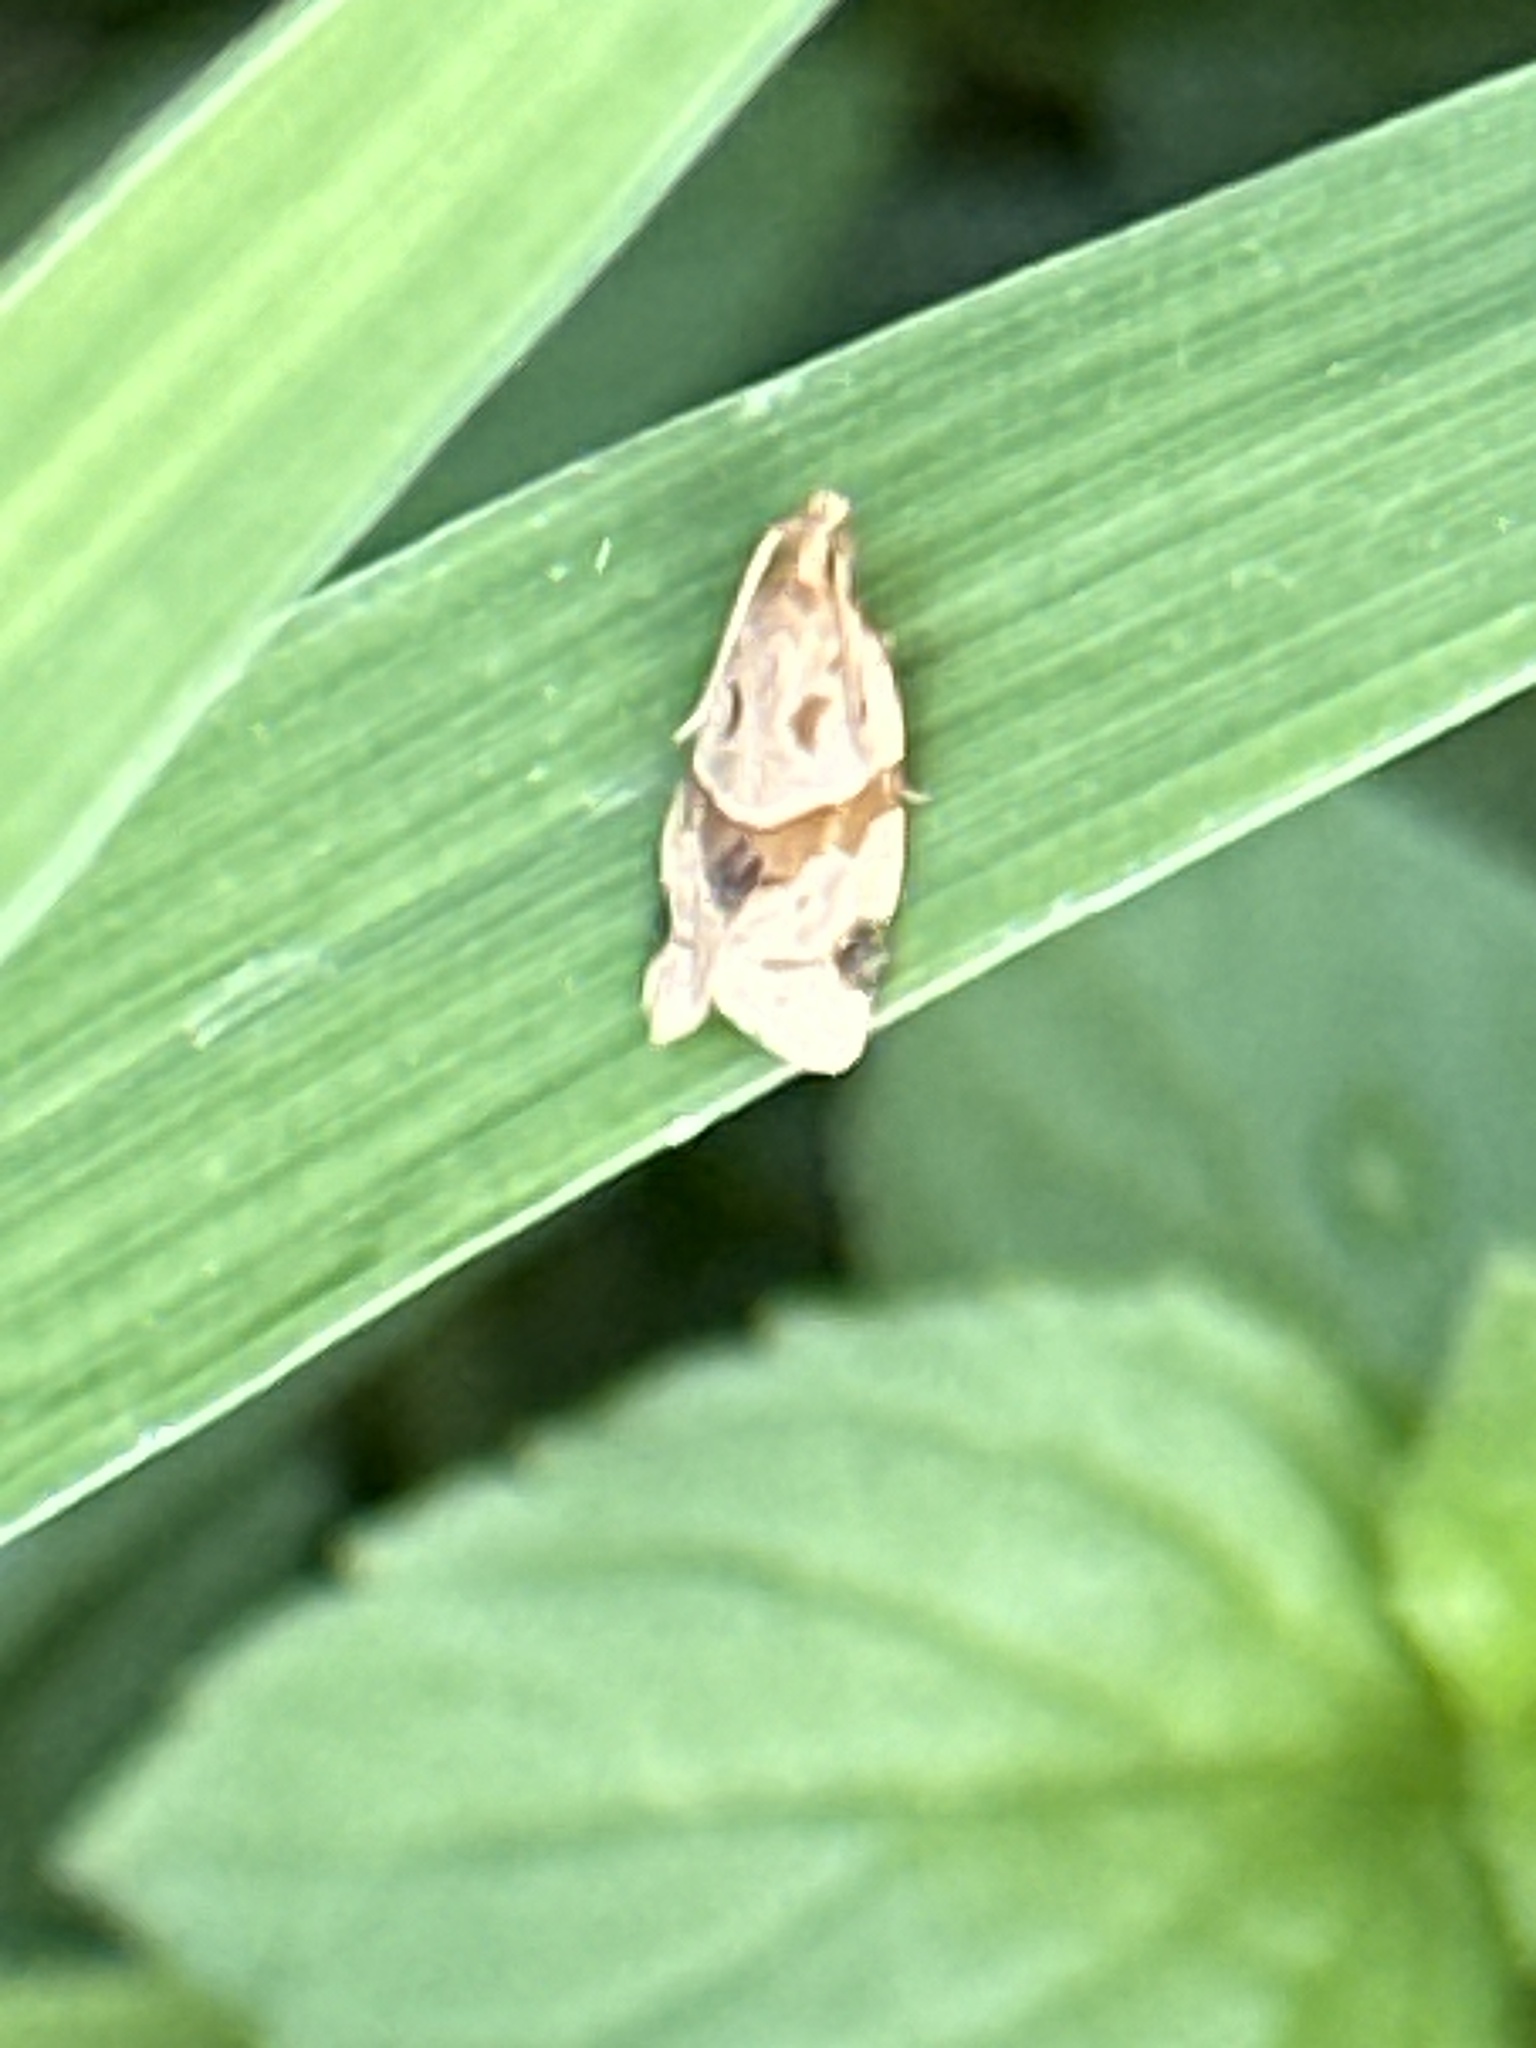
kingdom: Animalia
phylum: Arthropoda
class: Insecta
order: Lepidoptera
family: Tortricidae
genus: Clepsis
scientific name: Clepsis peritana
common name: Garden tortrix
